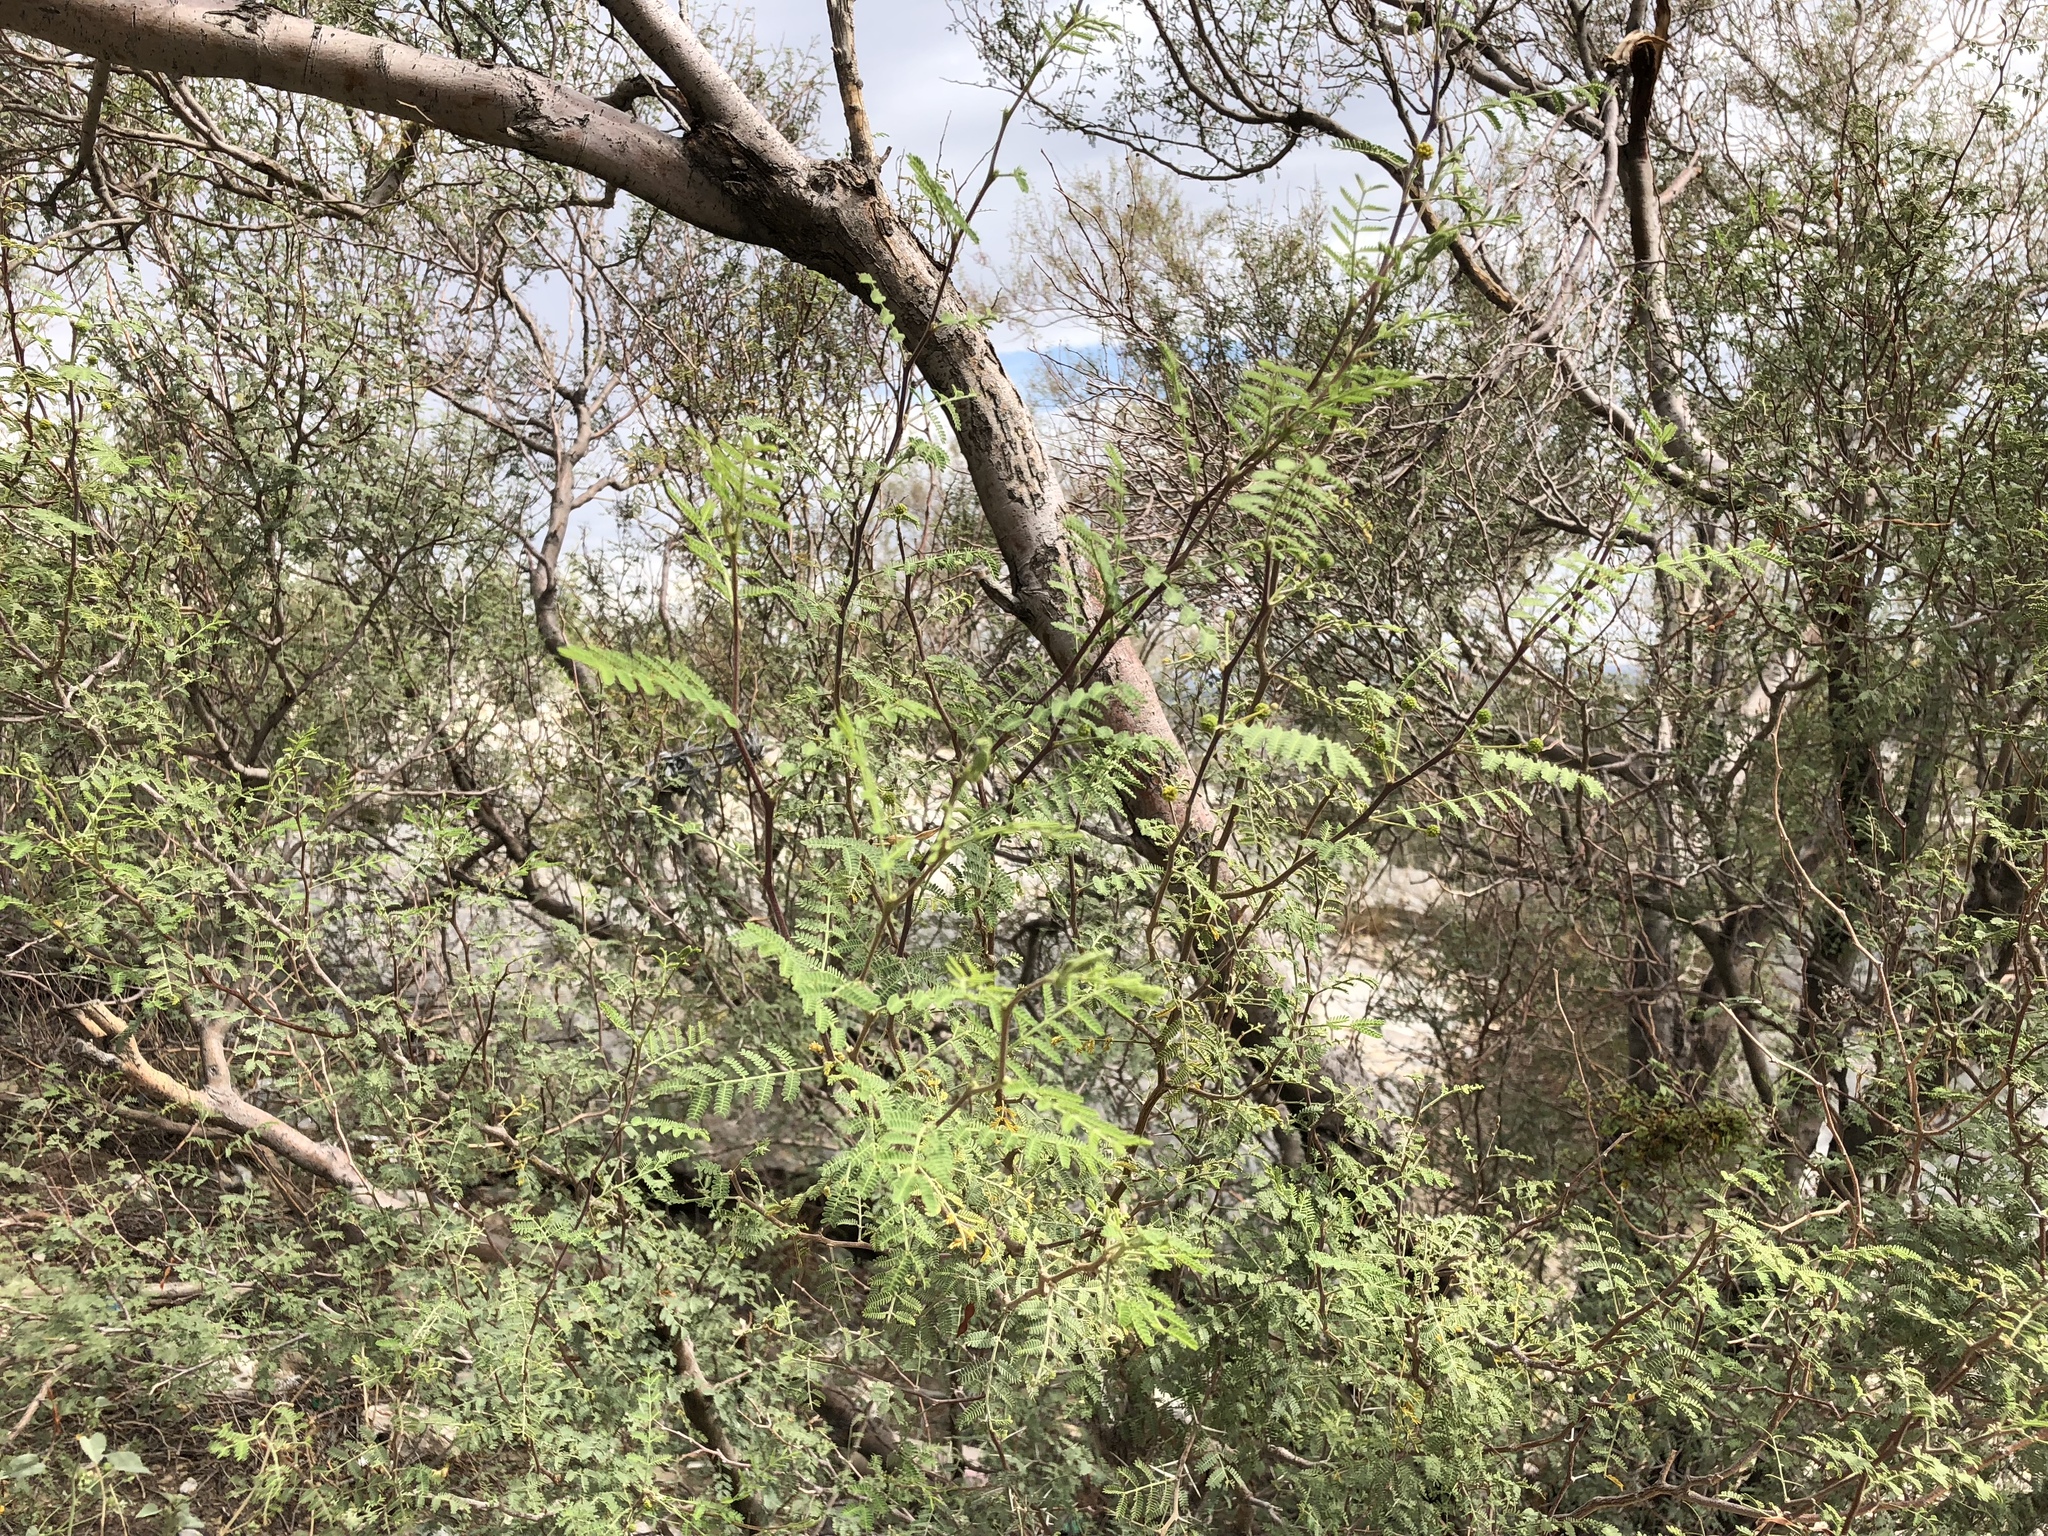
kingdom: Plantae
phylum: Tracheophyta
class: Magnoliopsida
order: Fabales
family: Fabaceae
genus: Prosopis
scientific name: Prosopis glandulosa
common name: Honey mesquite
